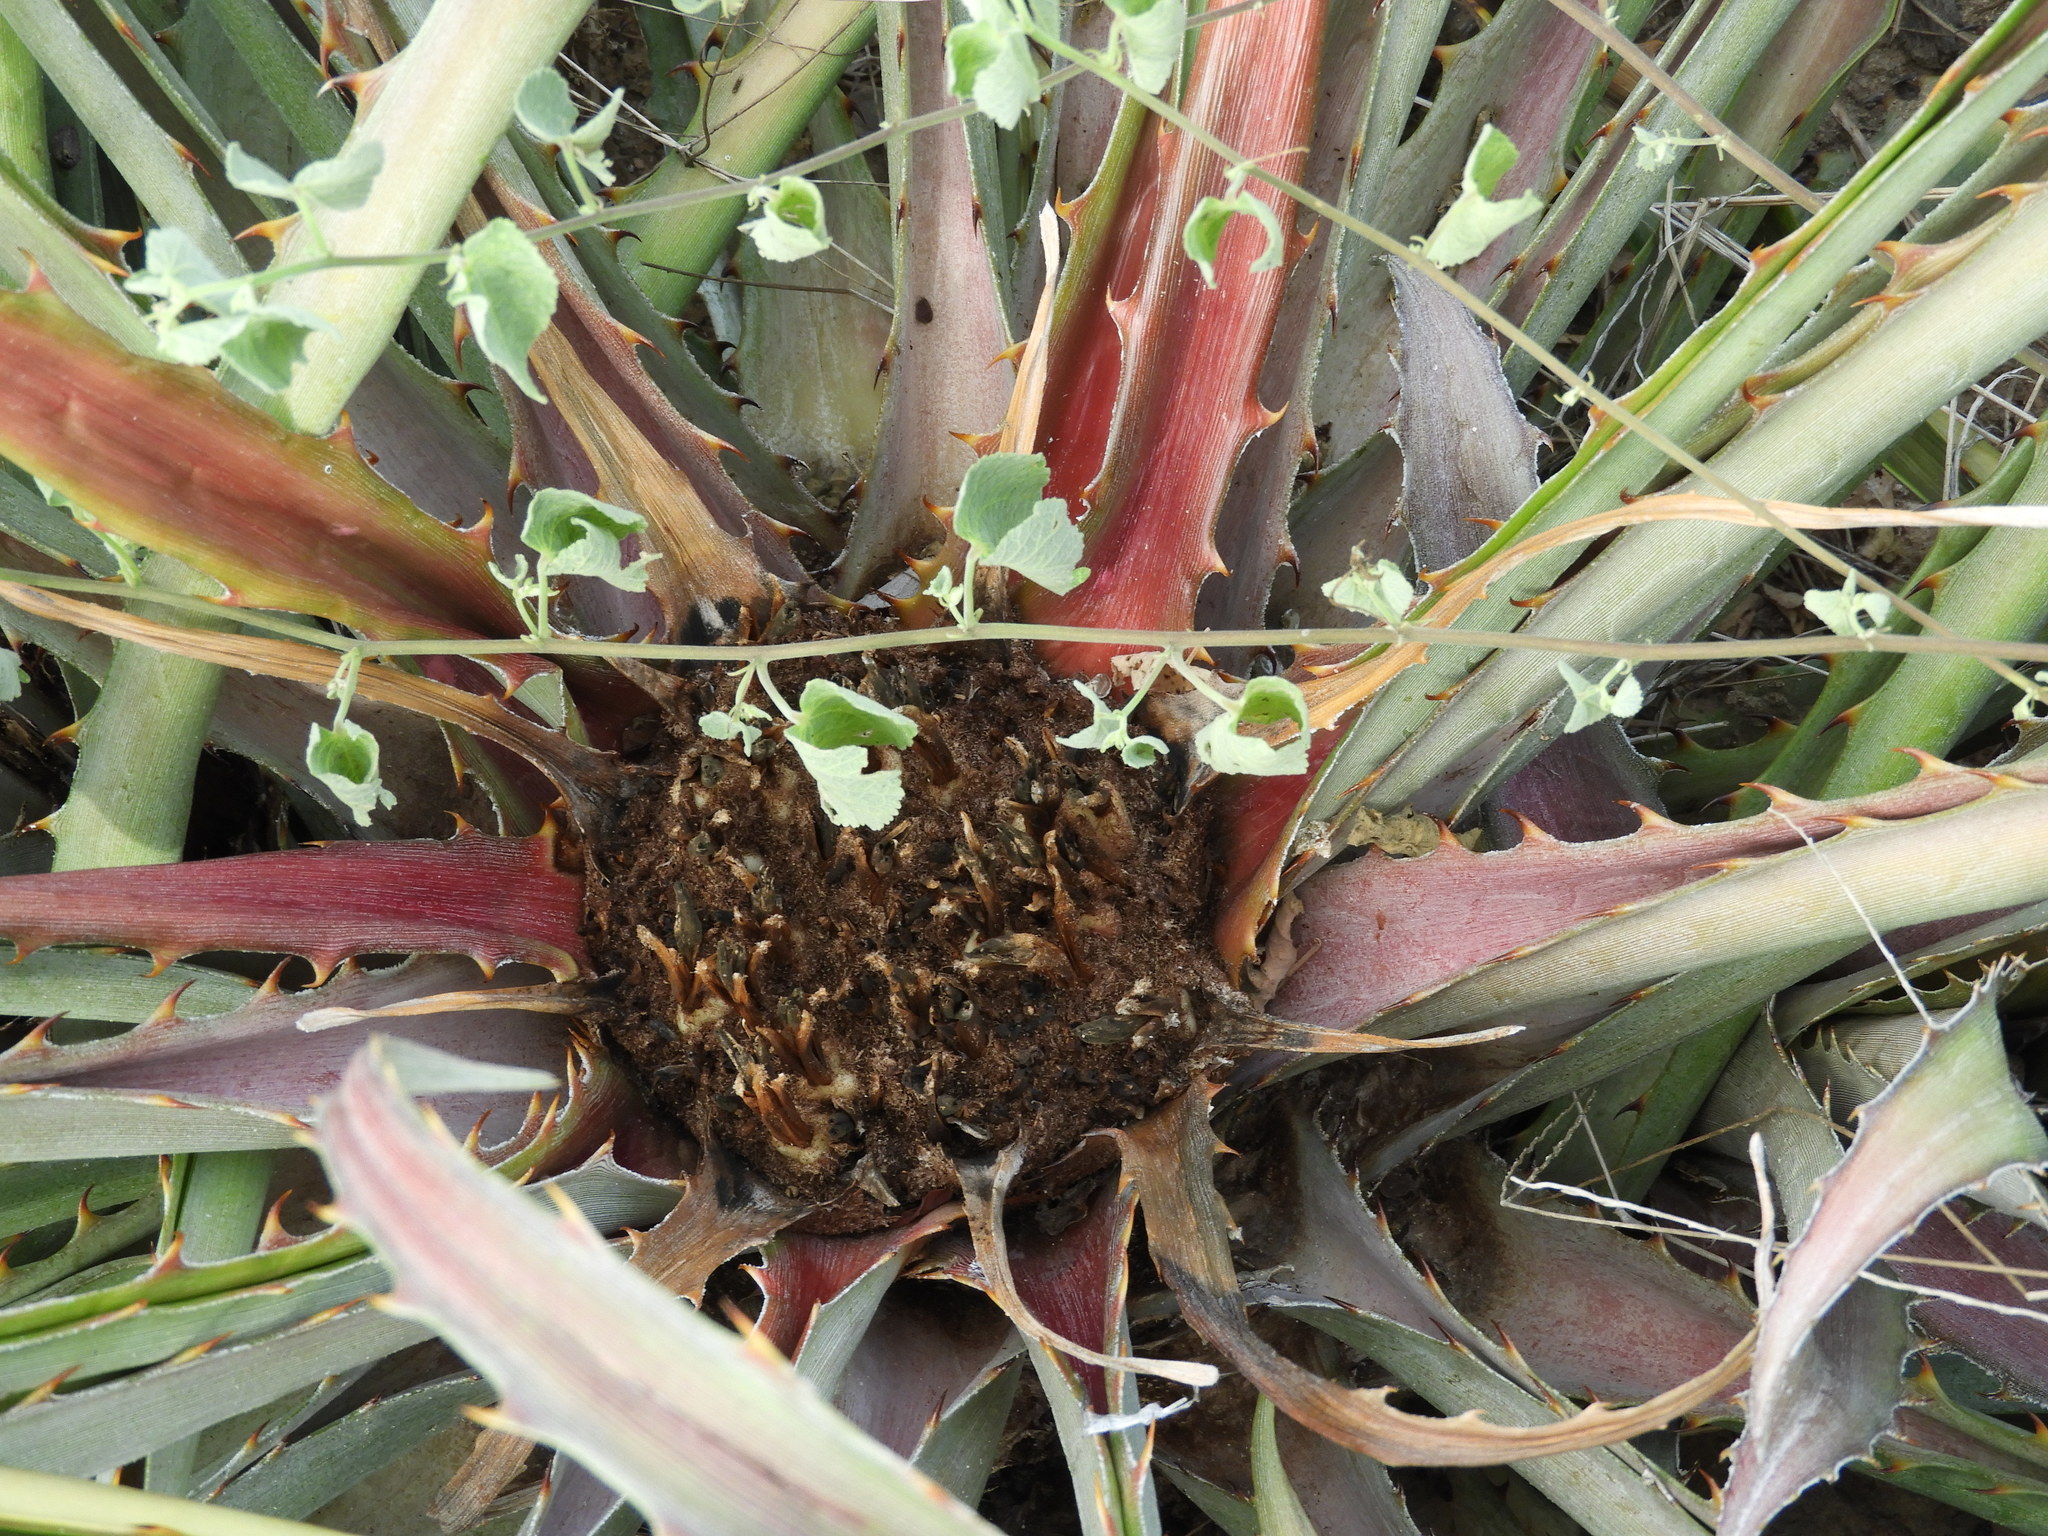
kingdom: Plantae
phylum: Tracheophyta
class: Liliopsida
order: Poales
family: Bromeliaceae
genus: Bromelia
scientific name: Bromelia karatas
